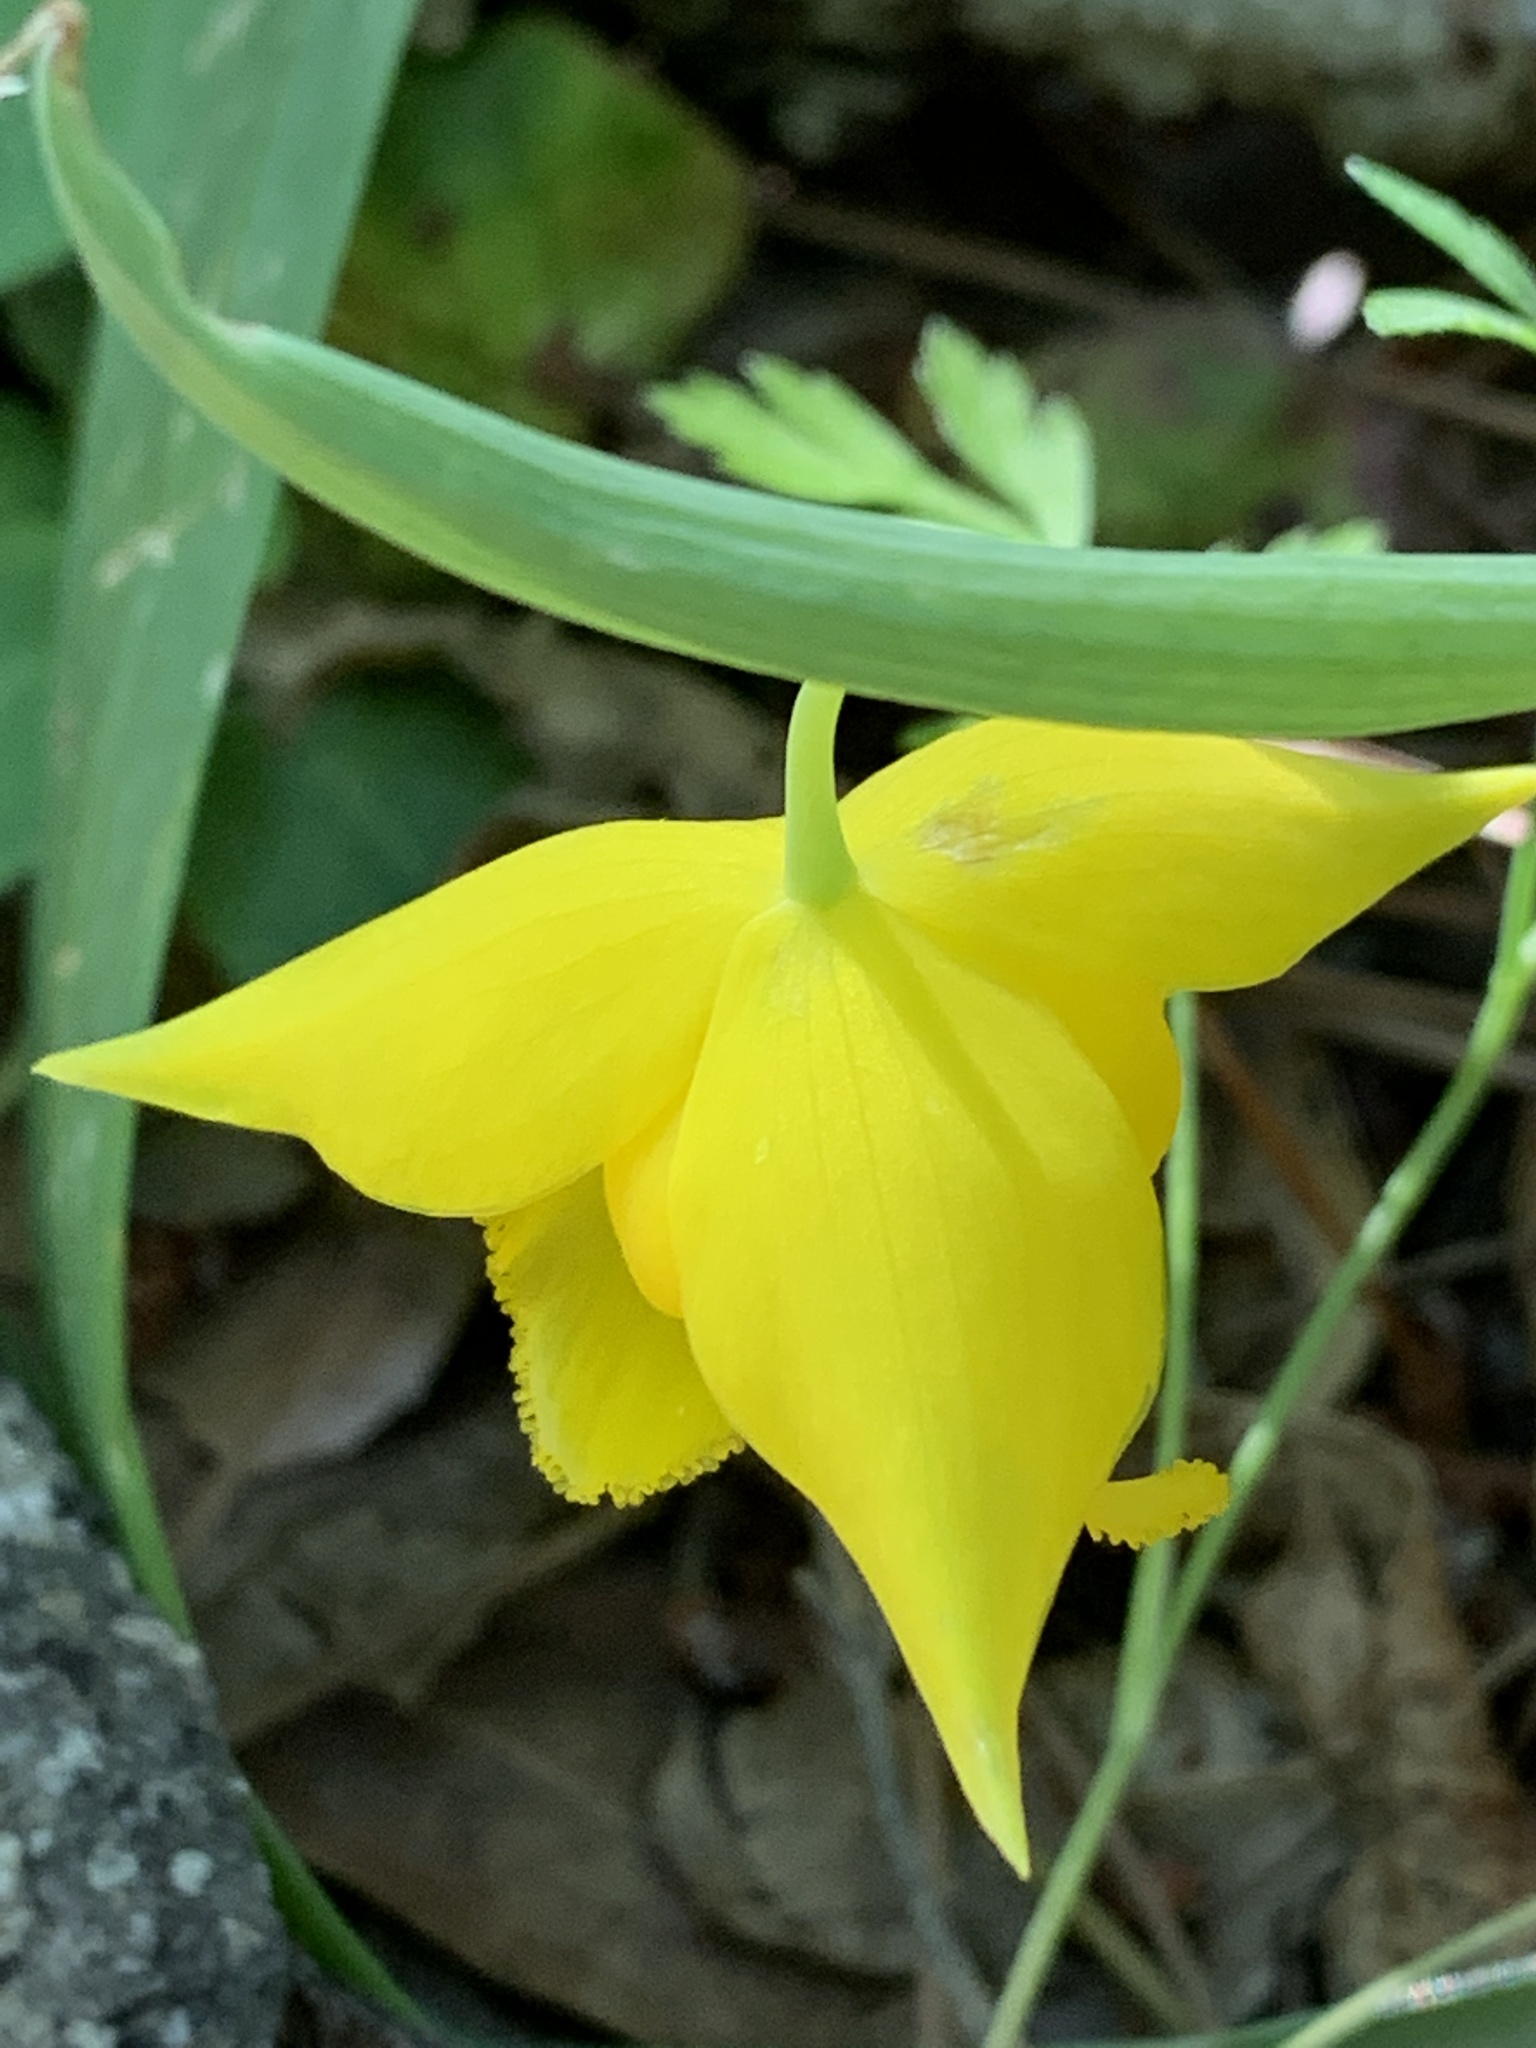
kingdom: Plantae
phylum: Tracheophyta
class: Liliopsida
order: Liliales
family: Liliaceae
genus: Calochortus
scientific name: Calochortus amabilis
